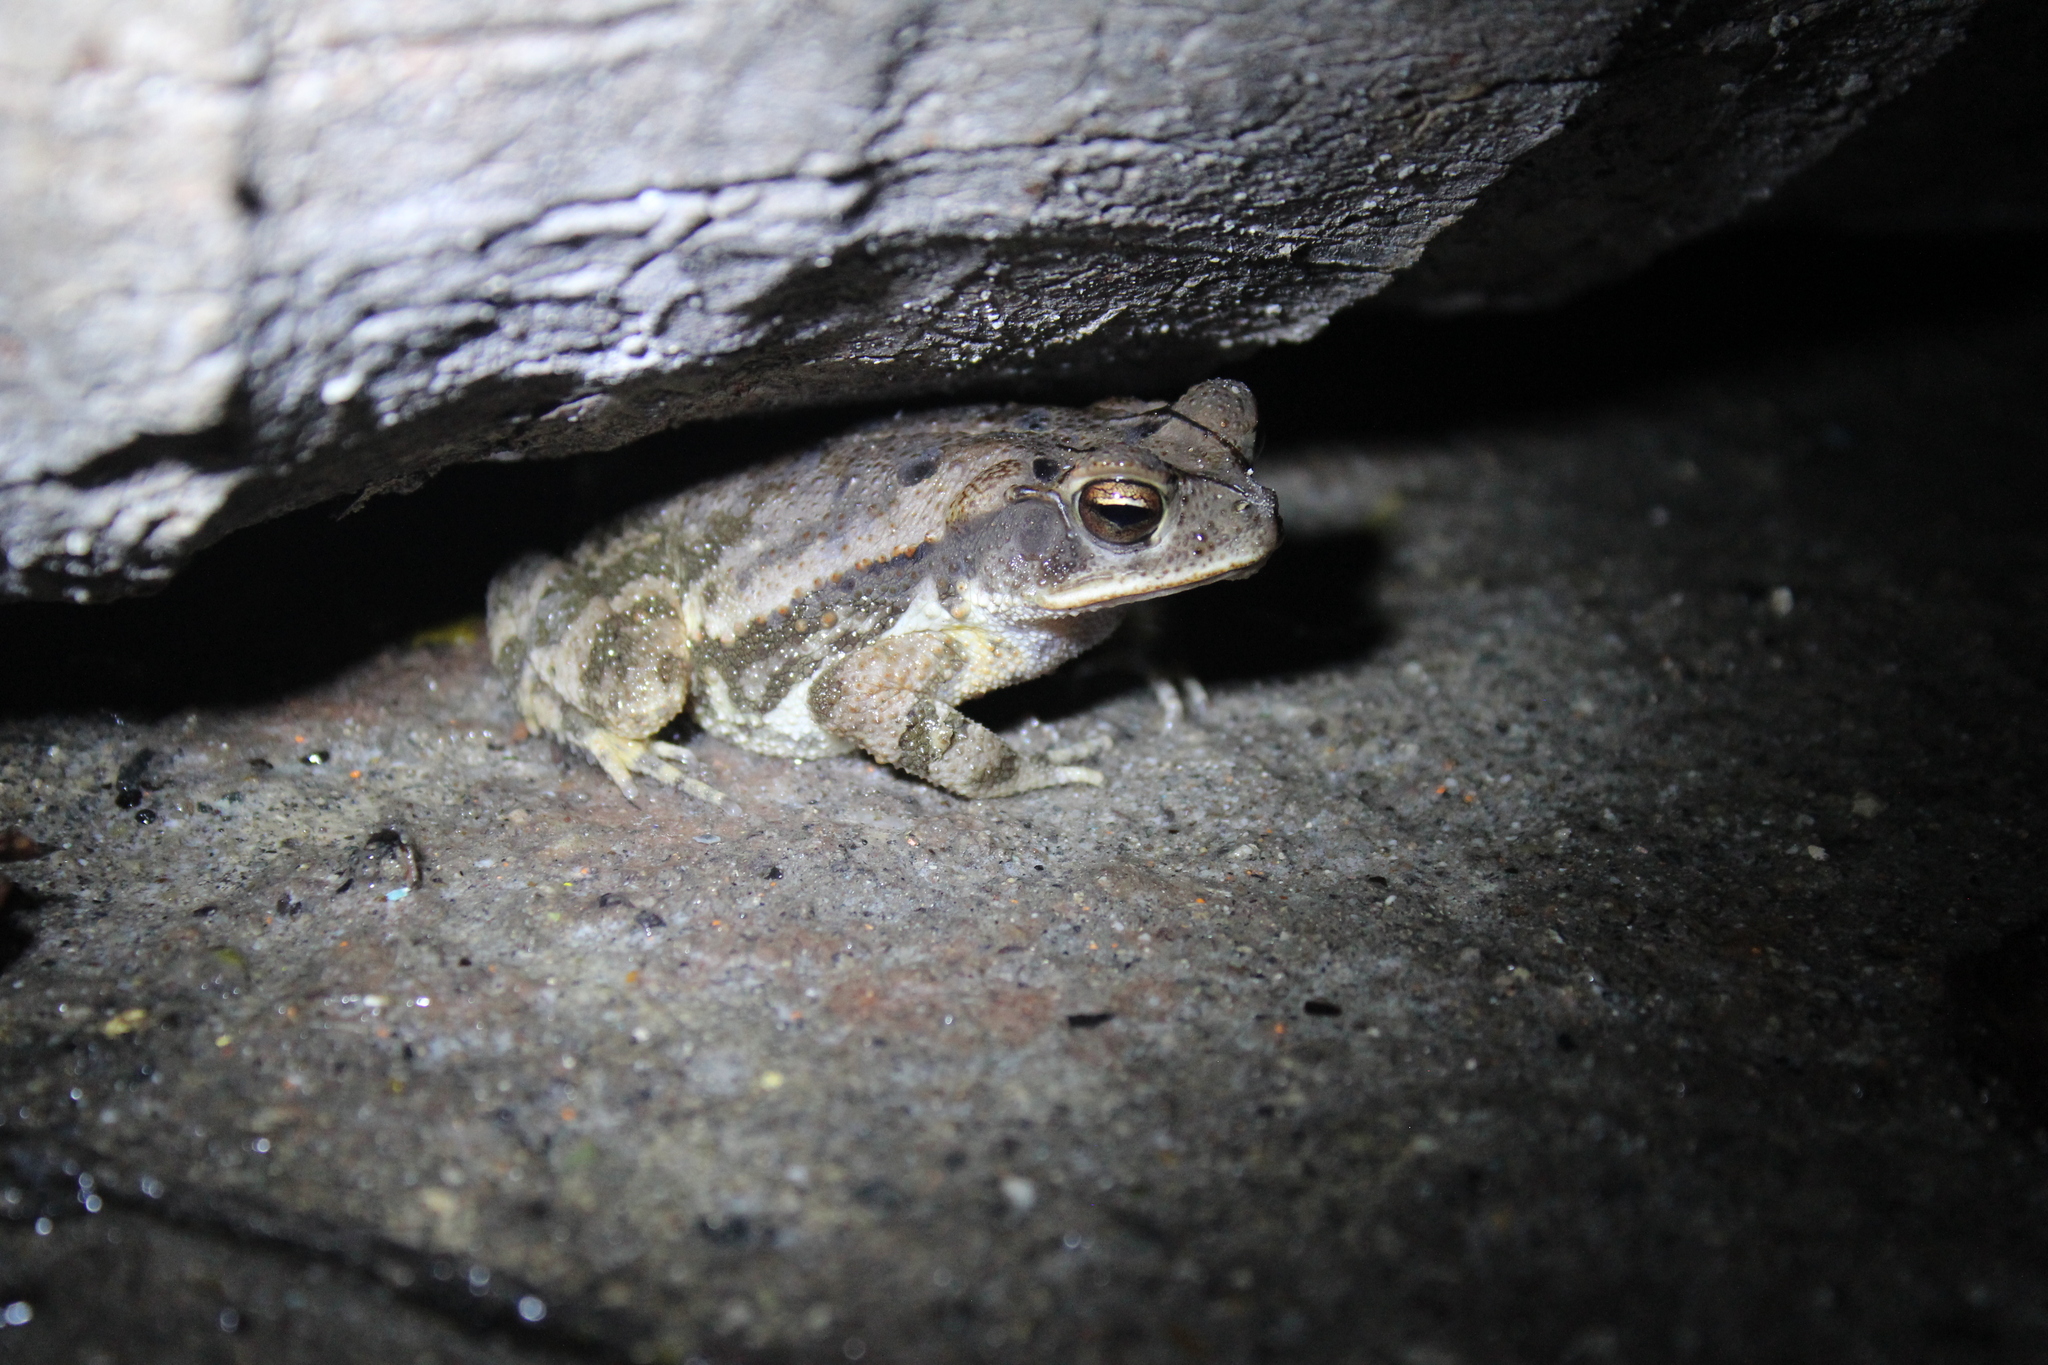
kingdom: Animalia
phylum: Chordata
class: Amphibia
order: Anura
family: Bufonidae
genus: Incilius
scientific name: Incilius valliceps
